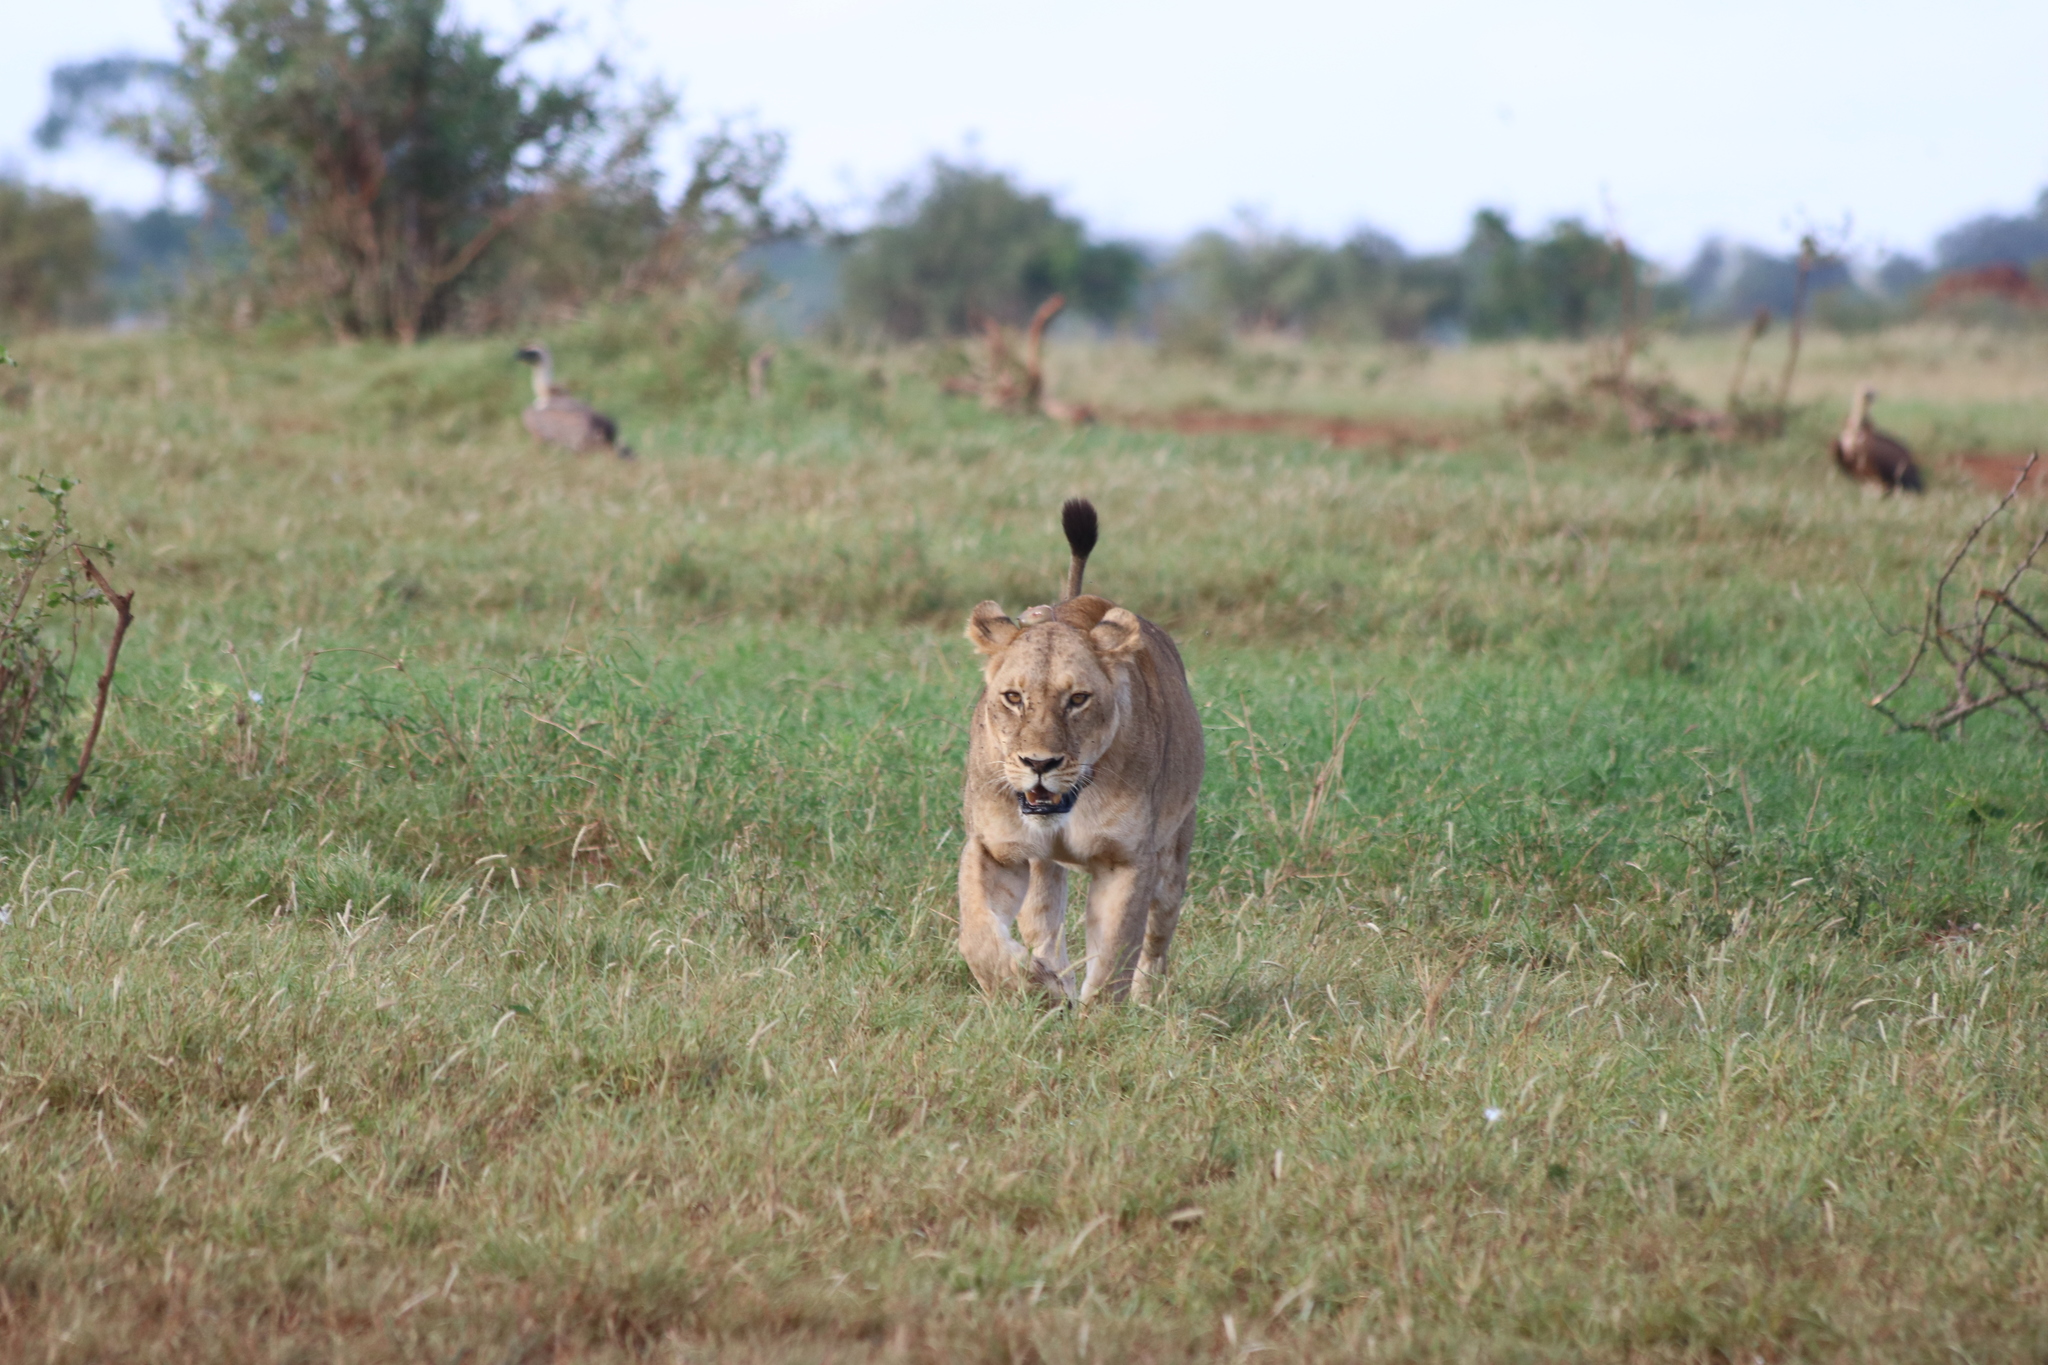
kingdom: Animalia
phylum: Chordata
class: Mammalia
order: Carnivora
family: Felidae
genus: Panthera
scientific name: Panthera leo
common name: Lion
